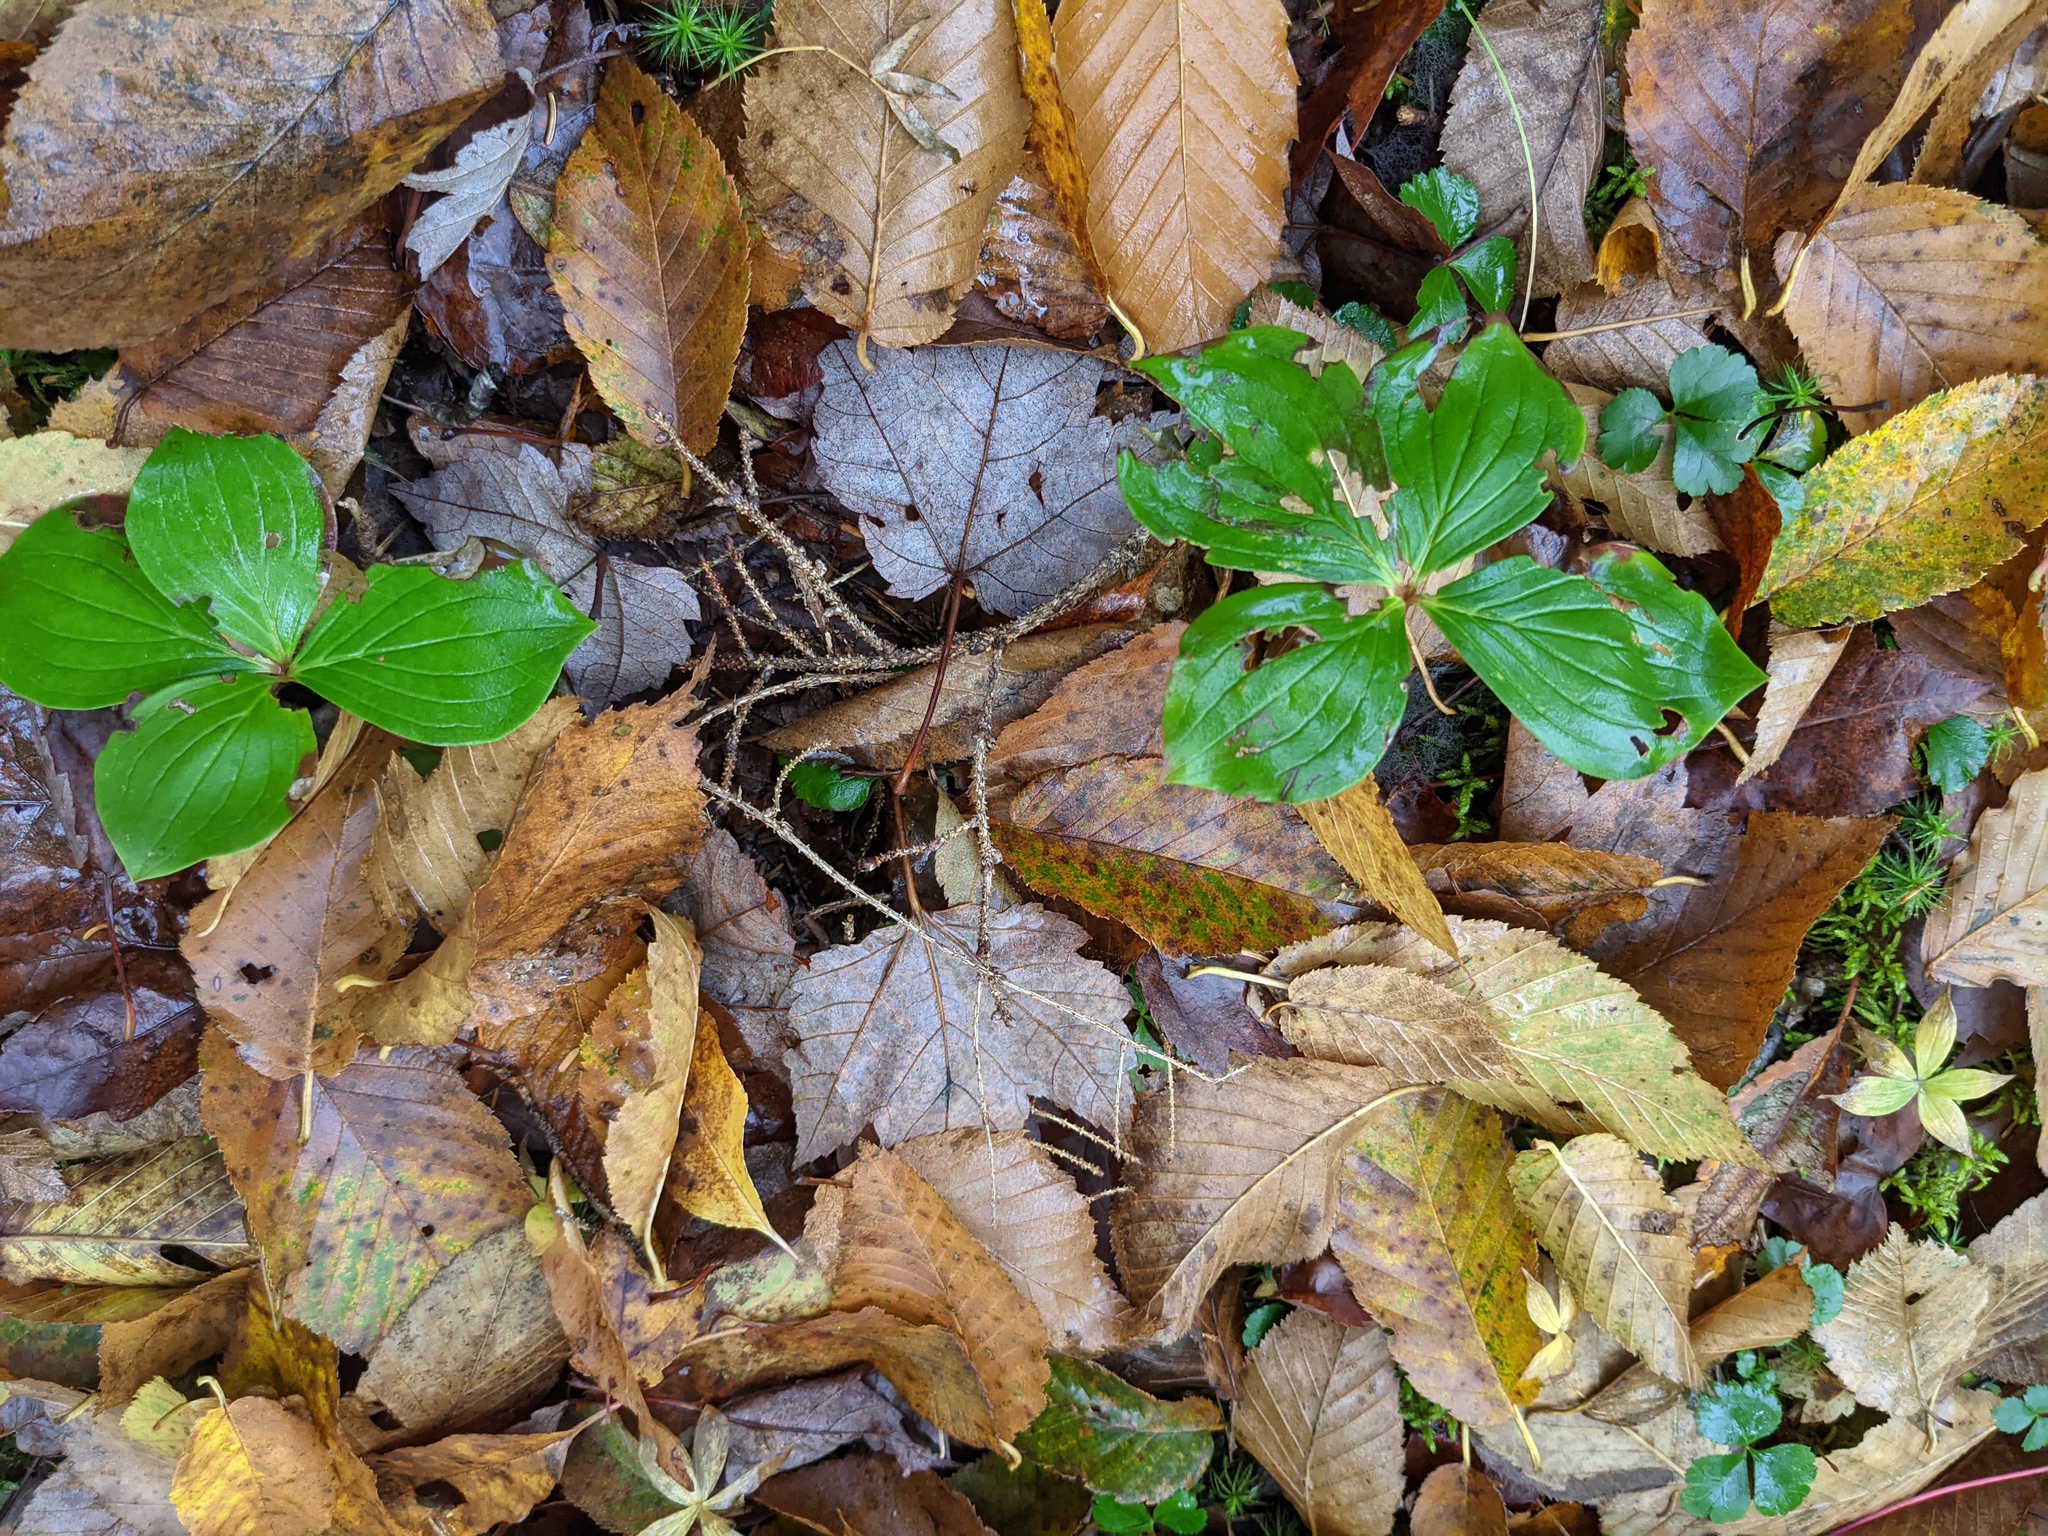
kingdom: Plantae
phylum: Tracheophyta
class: Magnoliopsida
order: Cornales
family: Cornaceae
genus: Cornus
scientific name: Cornus canadensis
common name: Creeping dogwood
